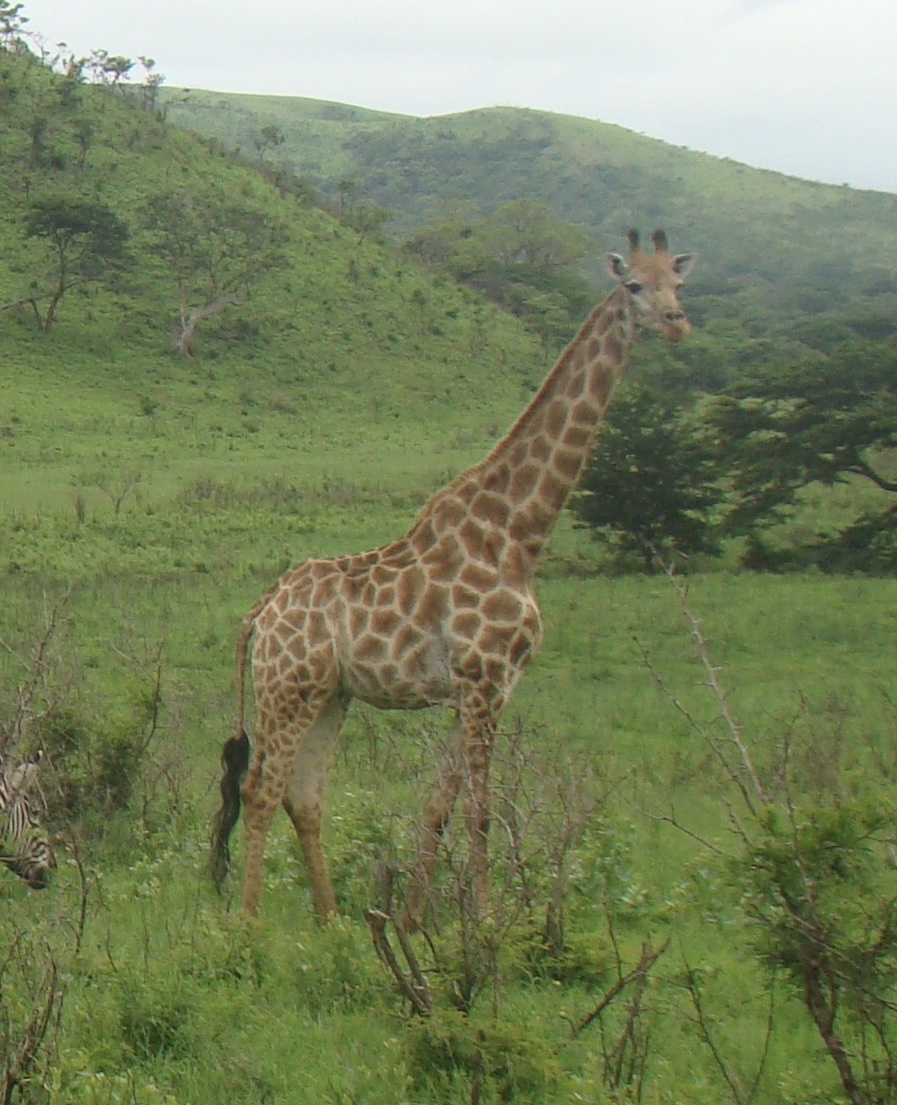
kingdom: Animalia
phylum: Chordata
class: Mammalia
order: Artiodactyla
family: Giraffidae
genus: Giraffa
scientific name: Giraffa giraffa
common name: Southern giraffe
